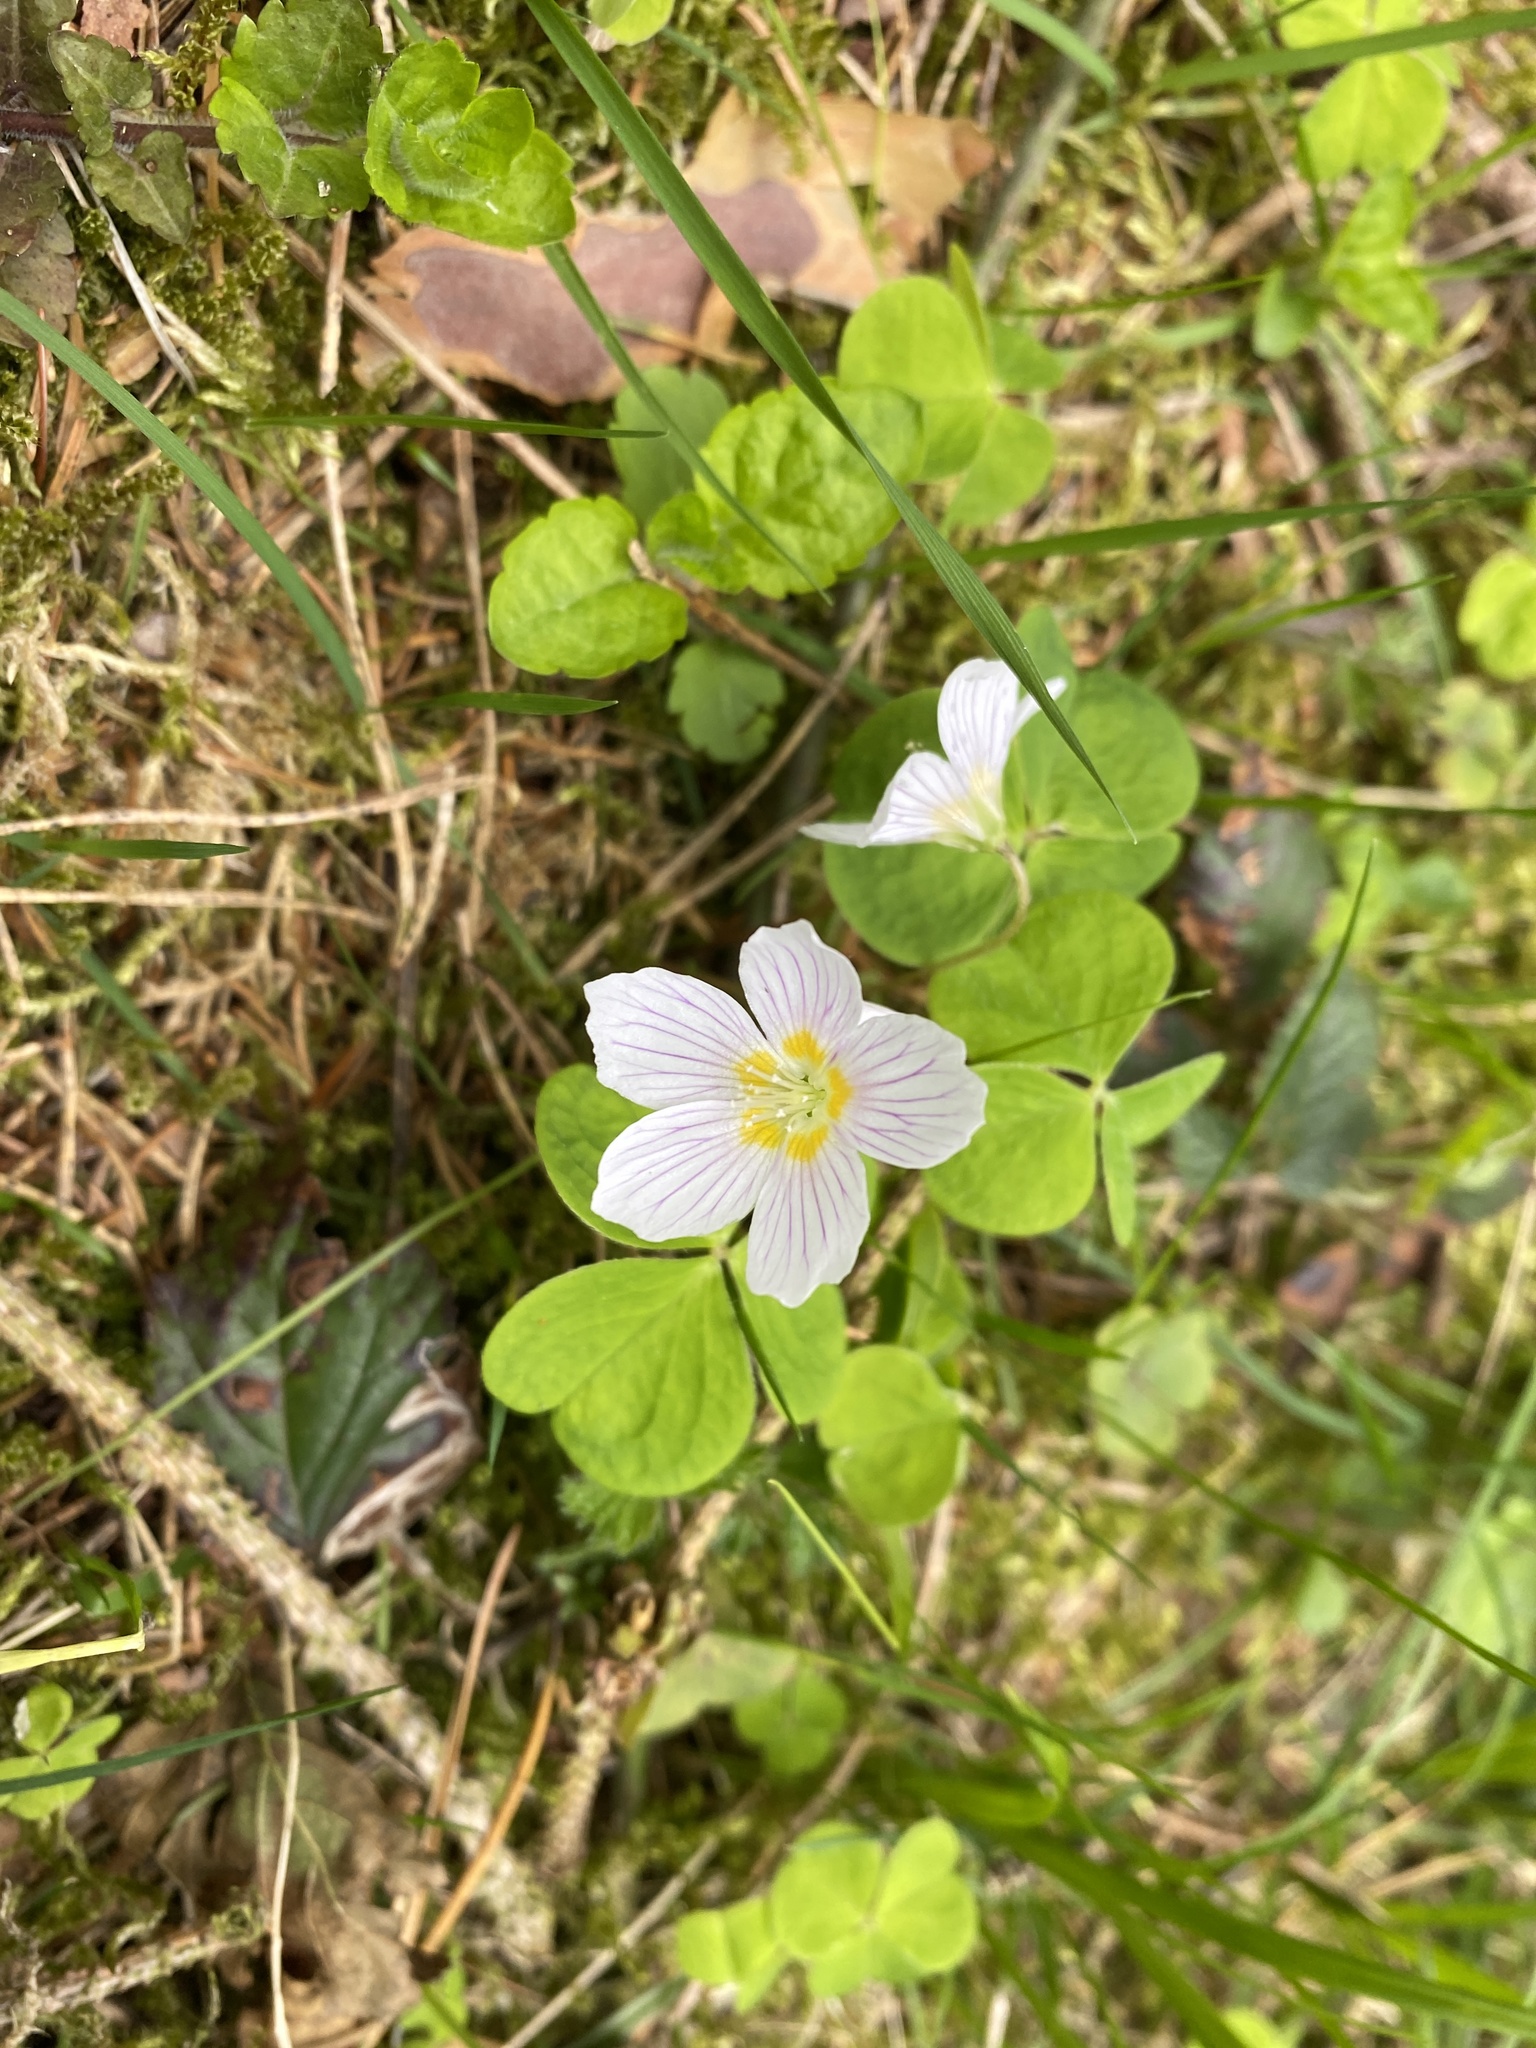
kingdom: Plantae
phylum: Tracheophyta
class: Magnoliopsida
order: Oxalidales
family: Oxalidaceae
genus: Oxalis
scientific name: Oxalis acetosella
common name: Wood-sorrel
